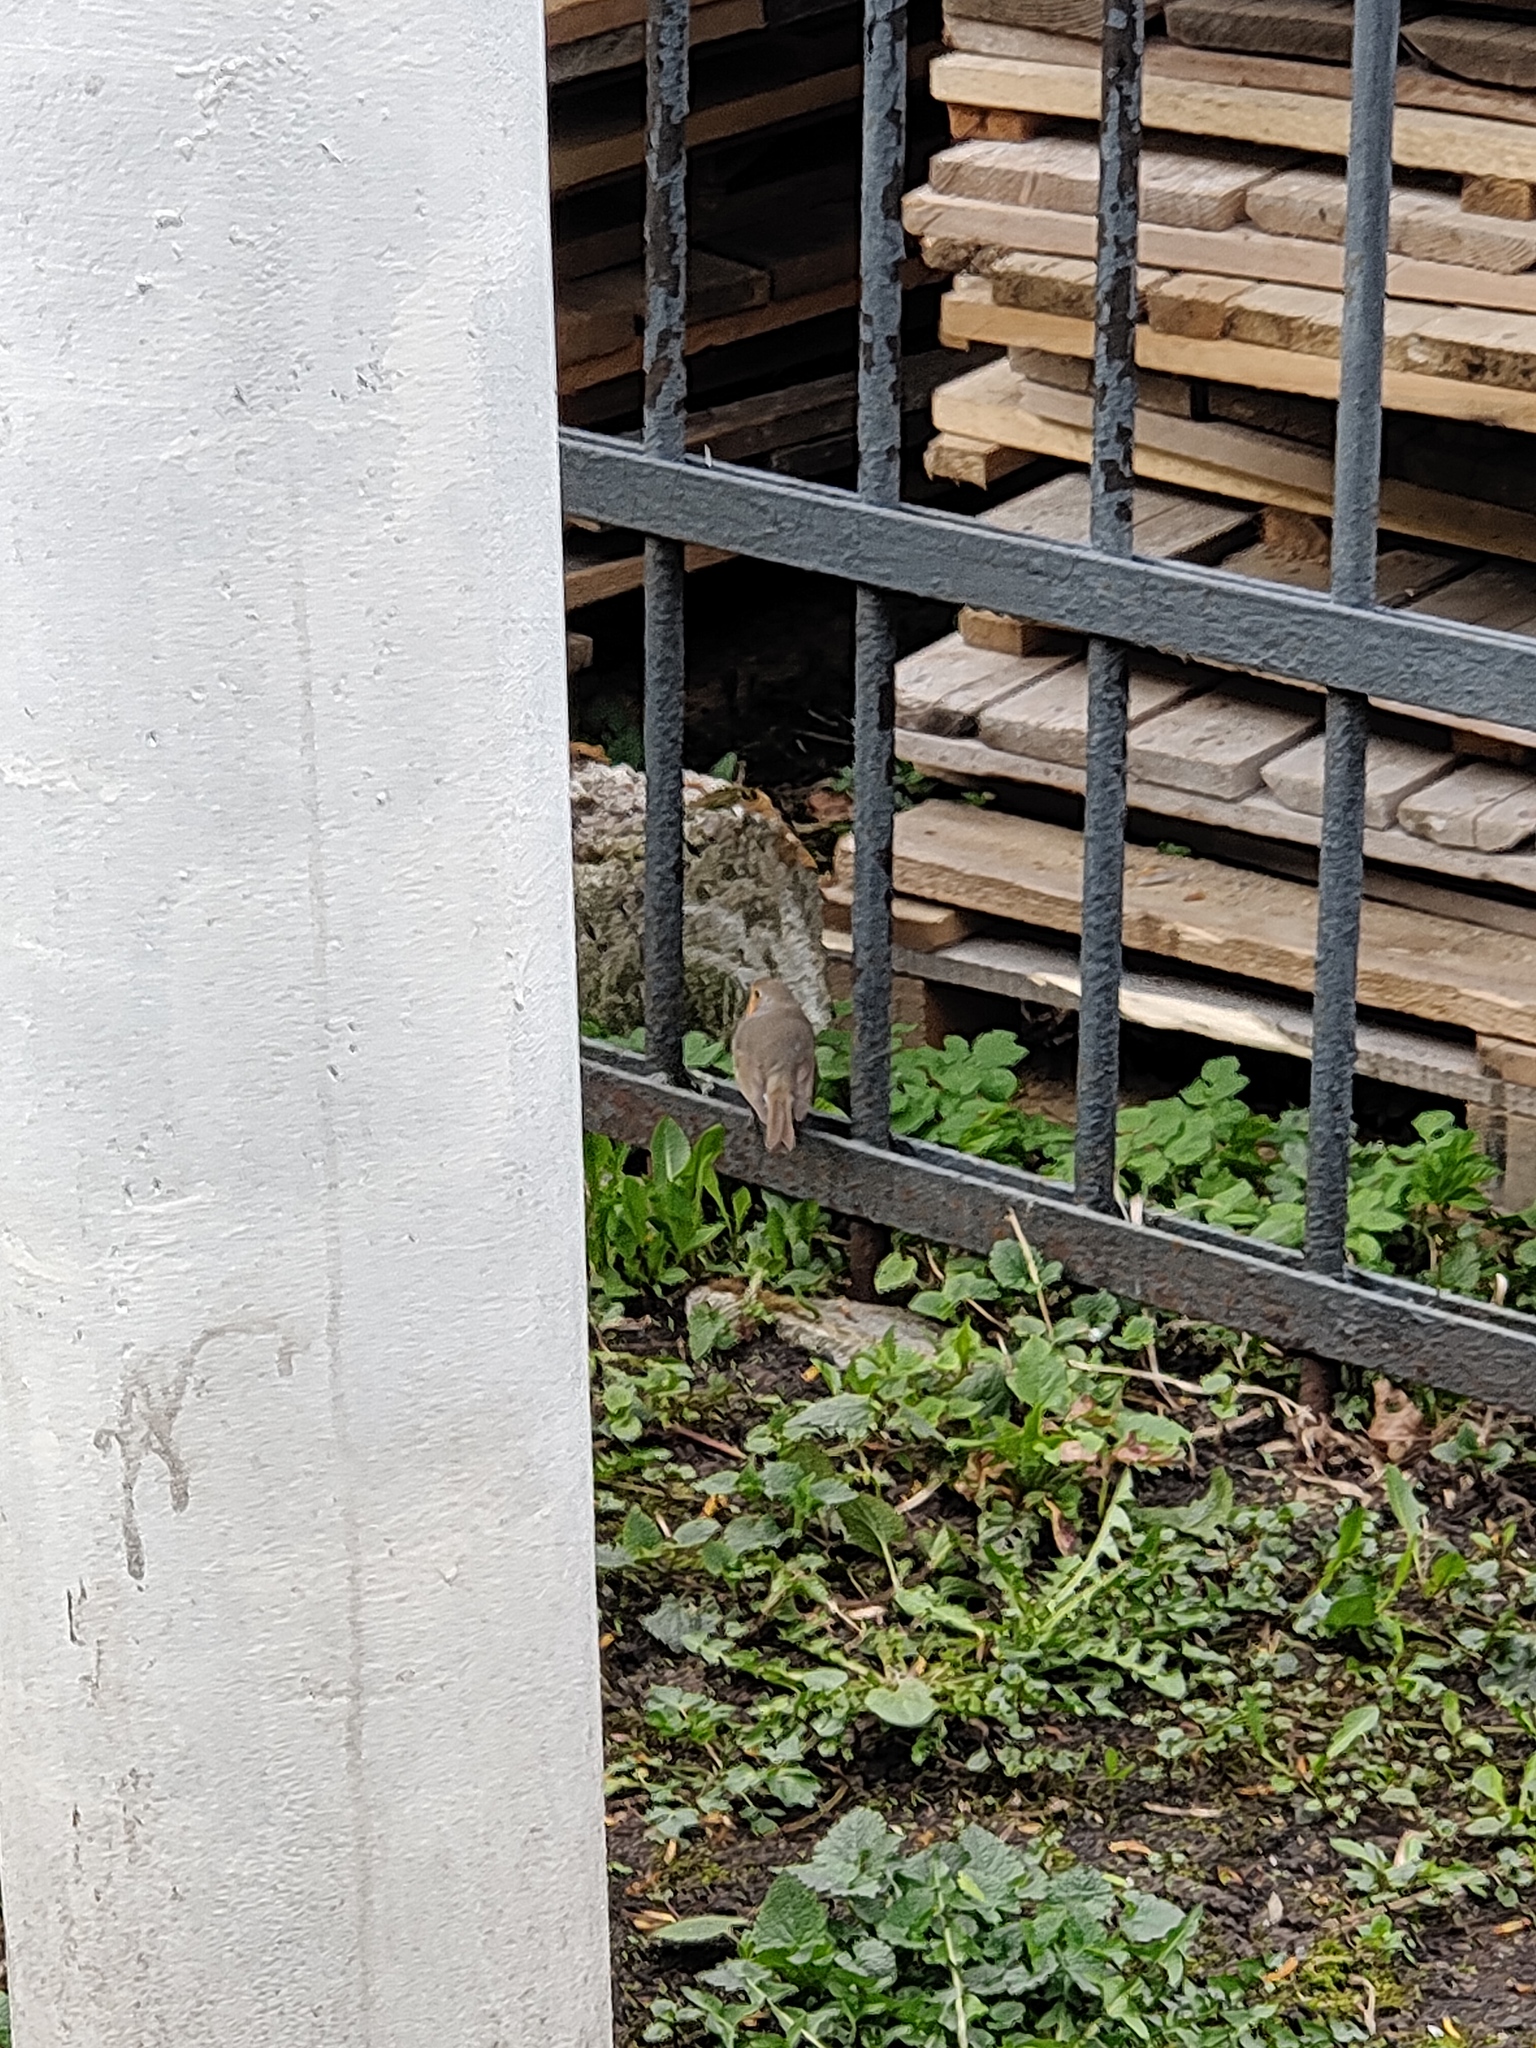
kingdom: Animalia
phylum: Chordata
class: Aves
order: Passeriformes
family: Muscicapidae
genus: Erithacus
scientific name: Erithacus rubecula
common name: European robin
